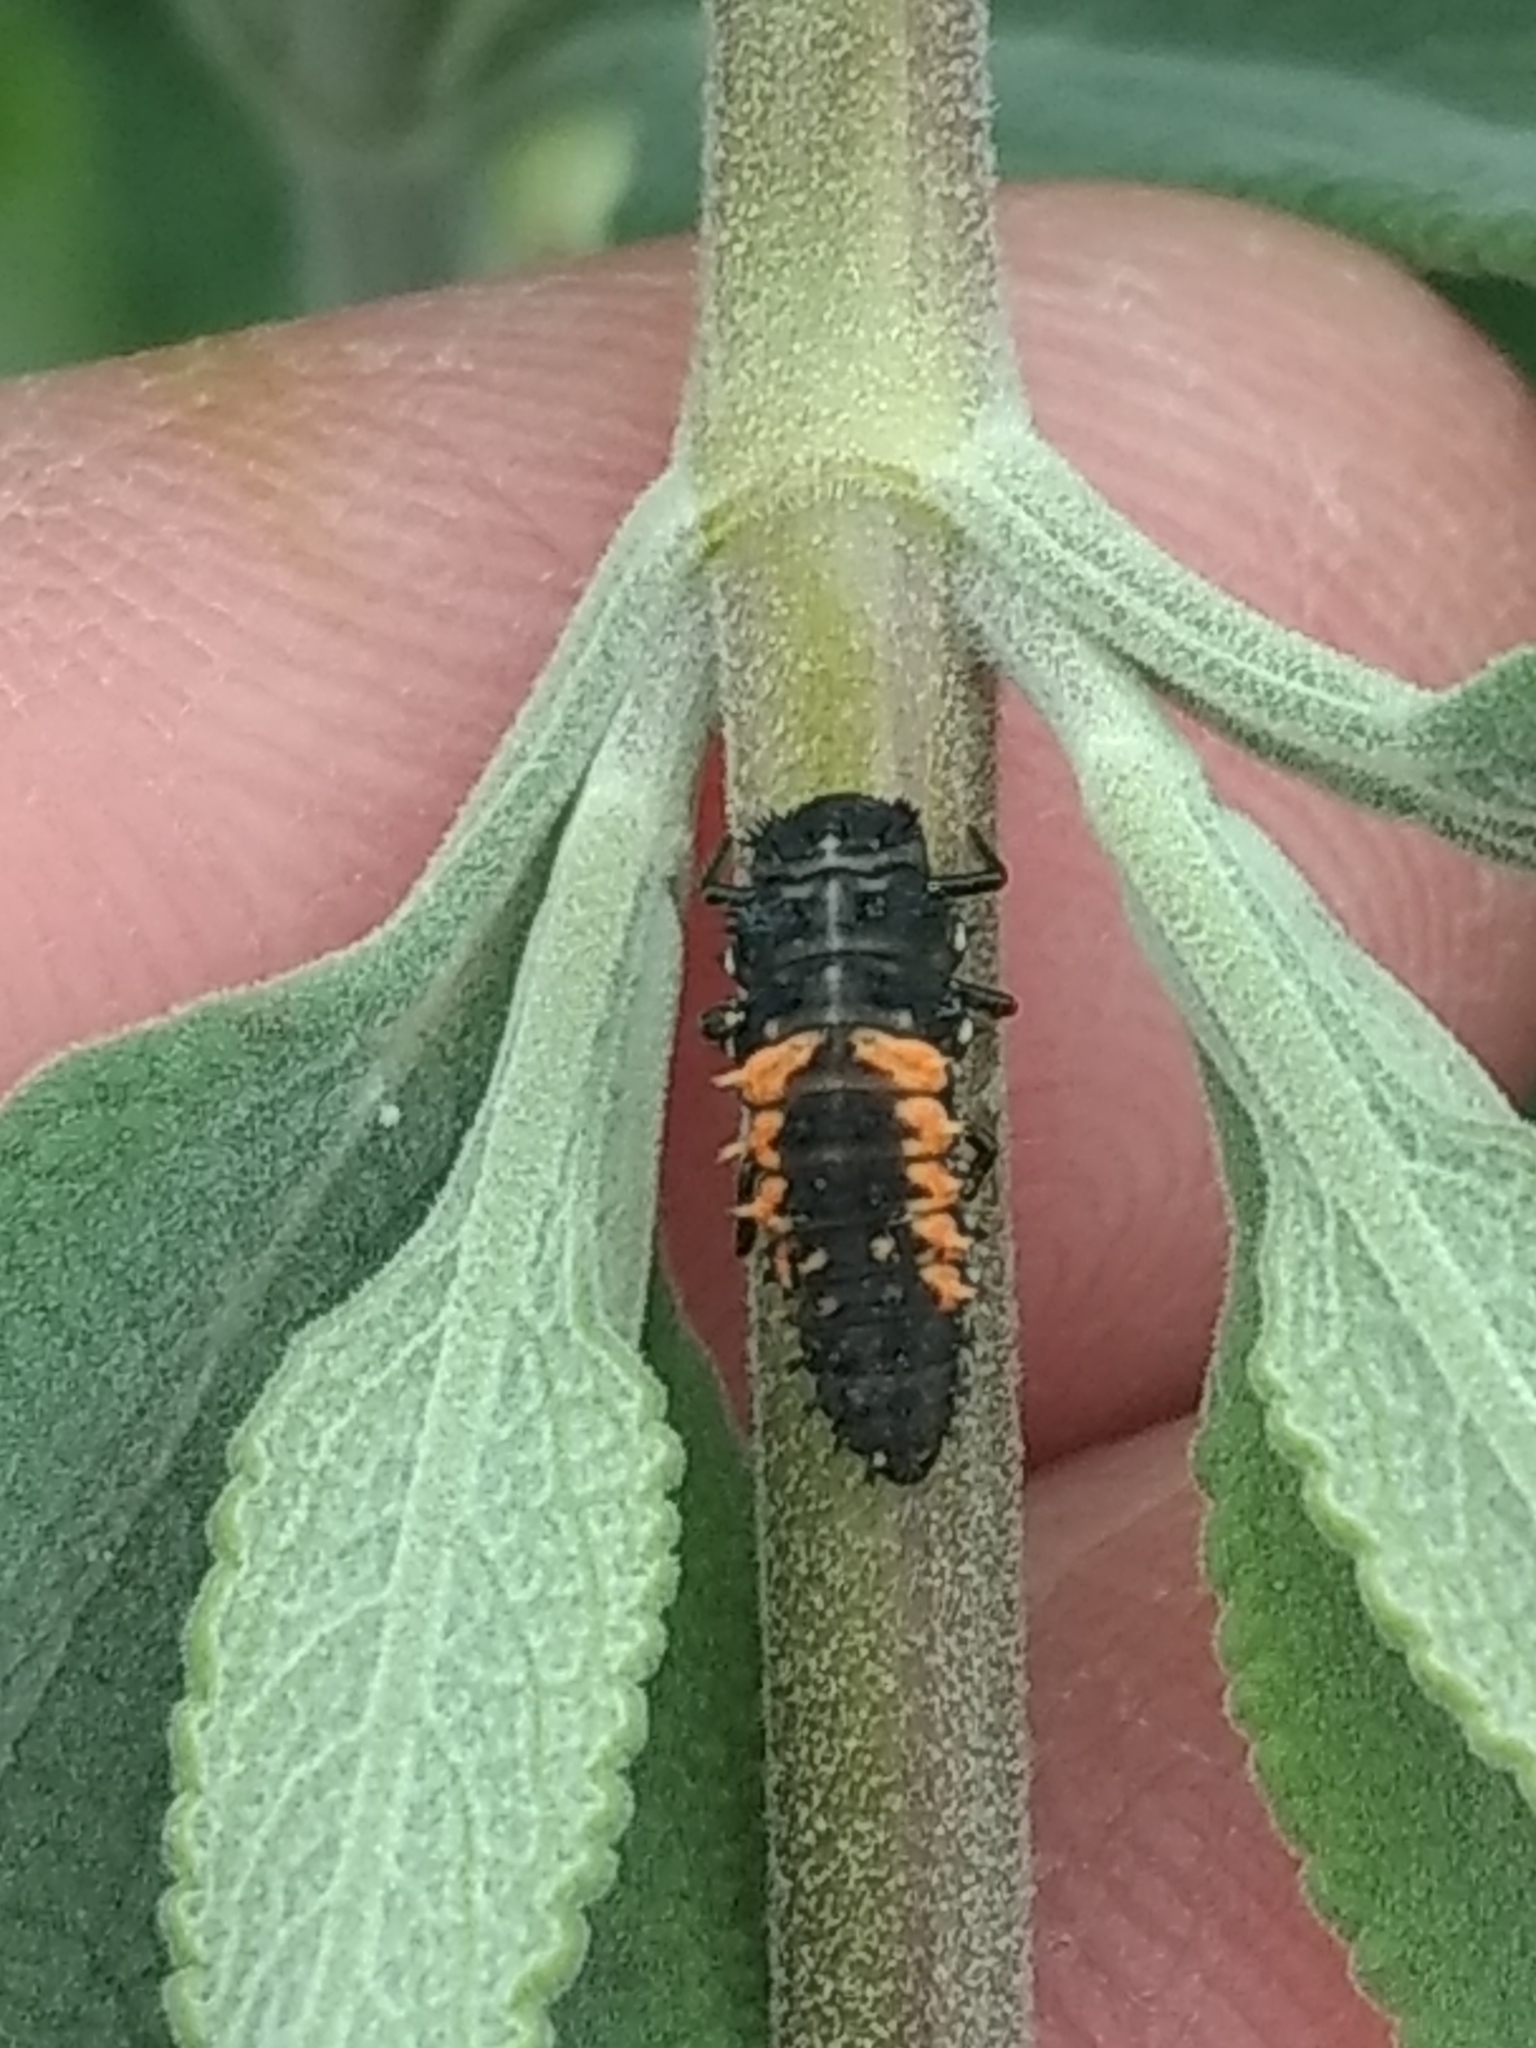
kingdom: Animalia
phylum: Arthropoda
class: Insecta
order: Coleoptera
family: Coccinellidae
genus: Harmonia
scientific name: Harmonia axyridis
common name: Harlequin ladybird
